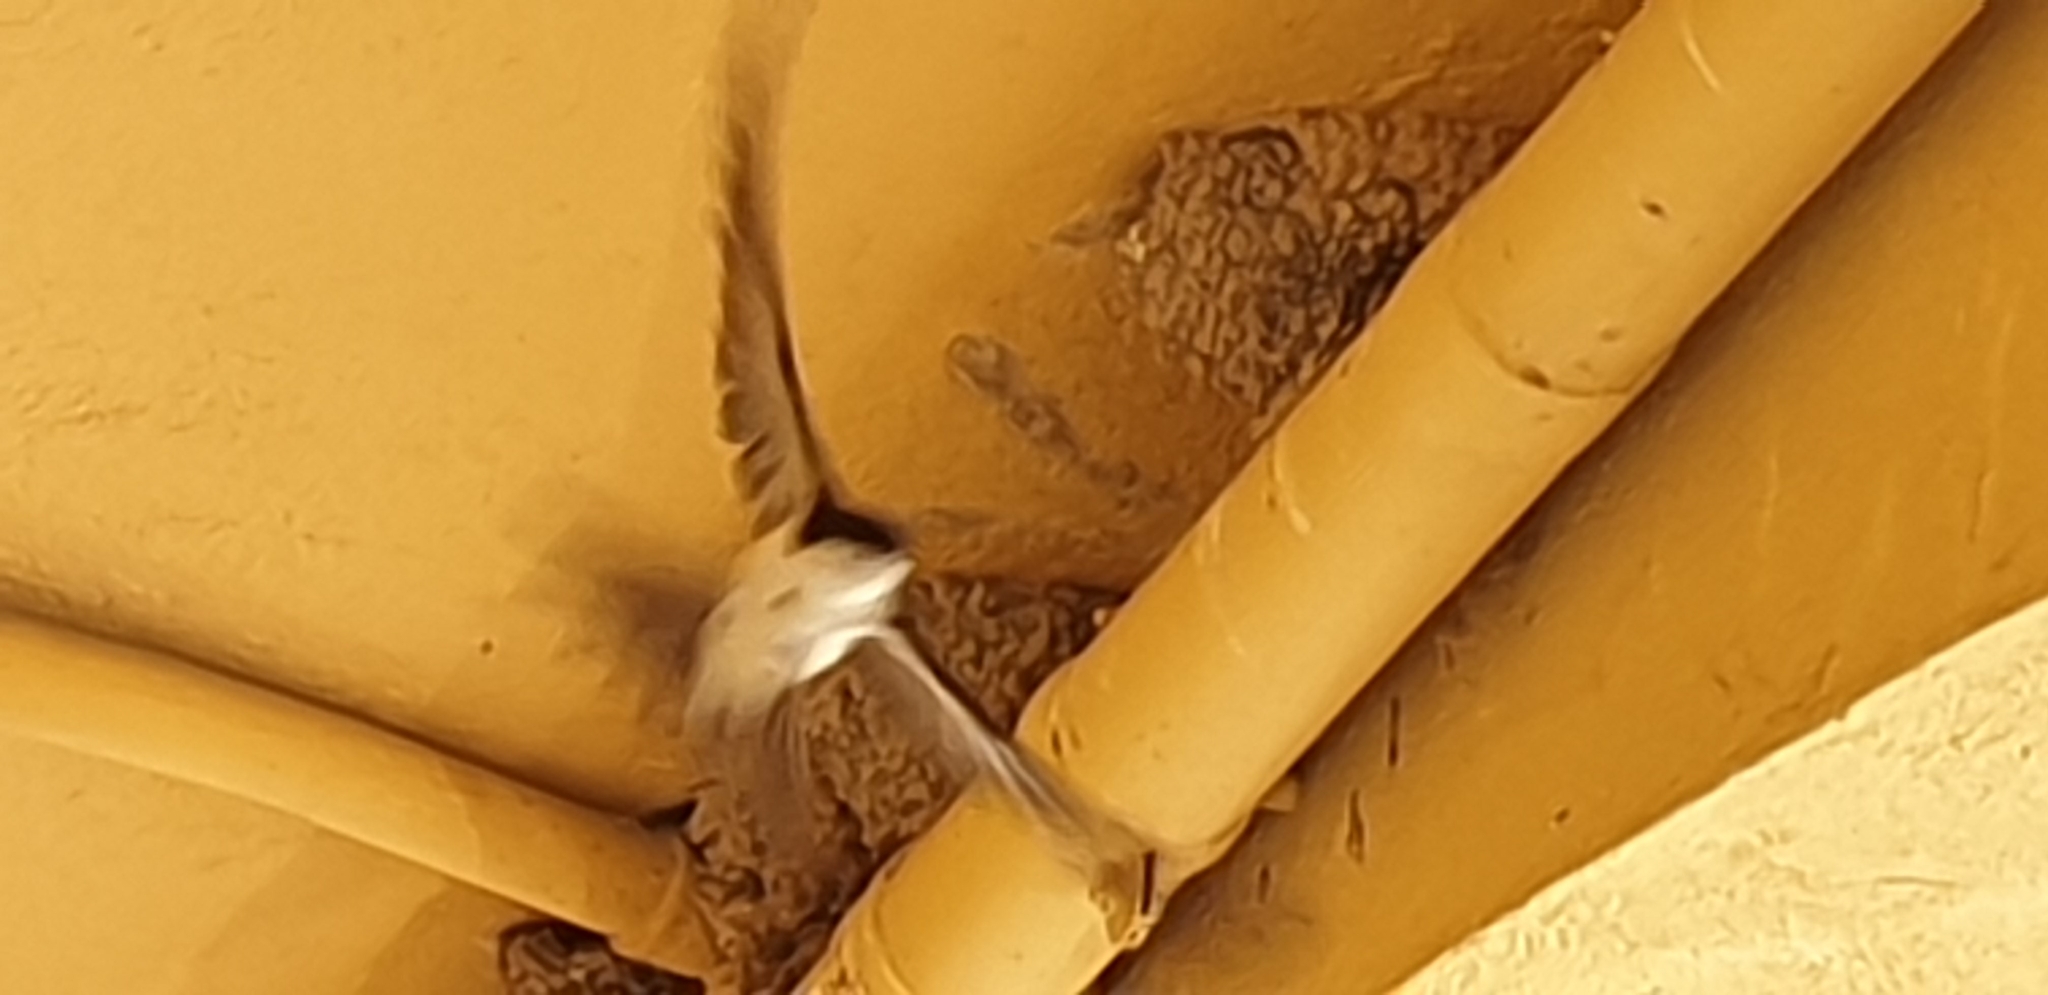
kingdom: Animalia
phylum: Chordata
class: Aves
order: Passeriformes
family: Hirundinidae
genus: Delichon
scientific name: Delichon urbicum
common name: Common house martin
